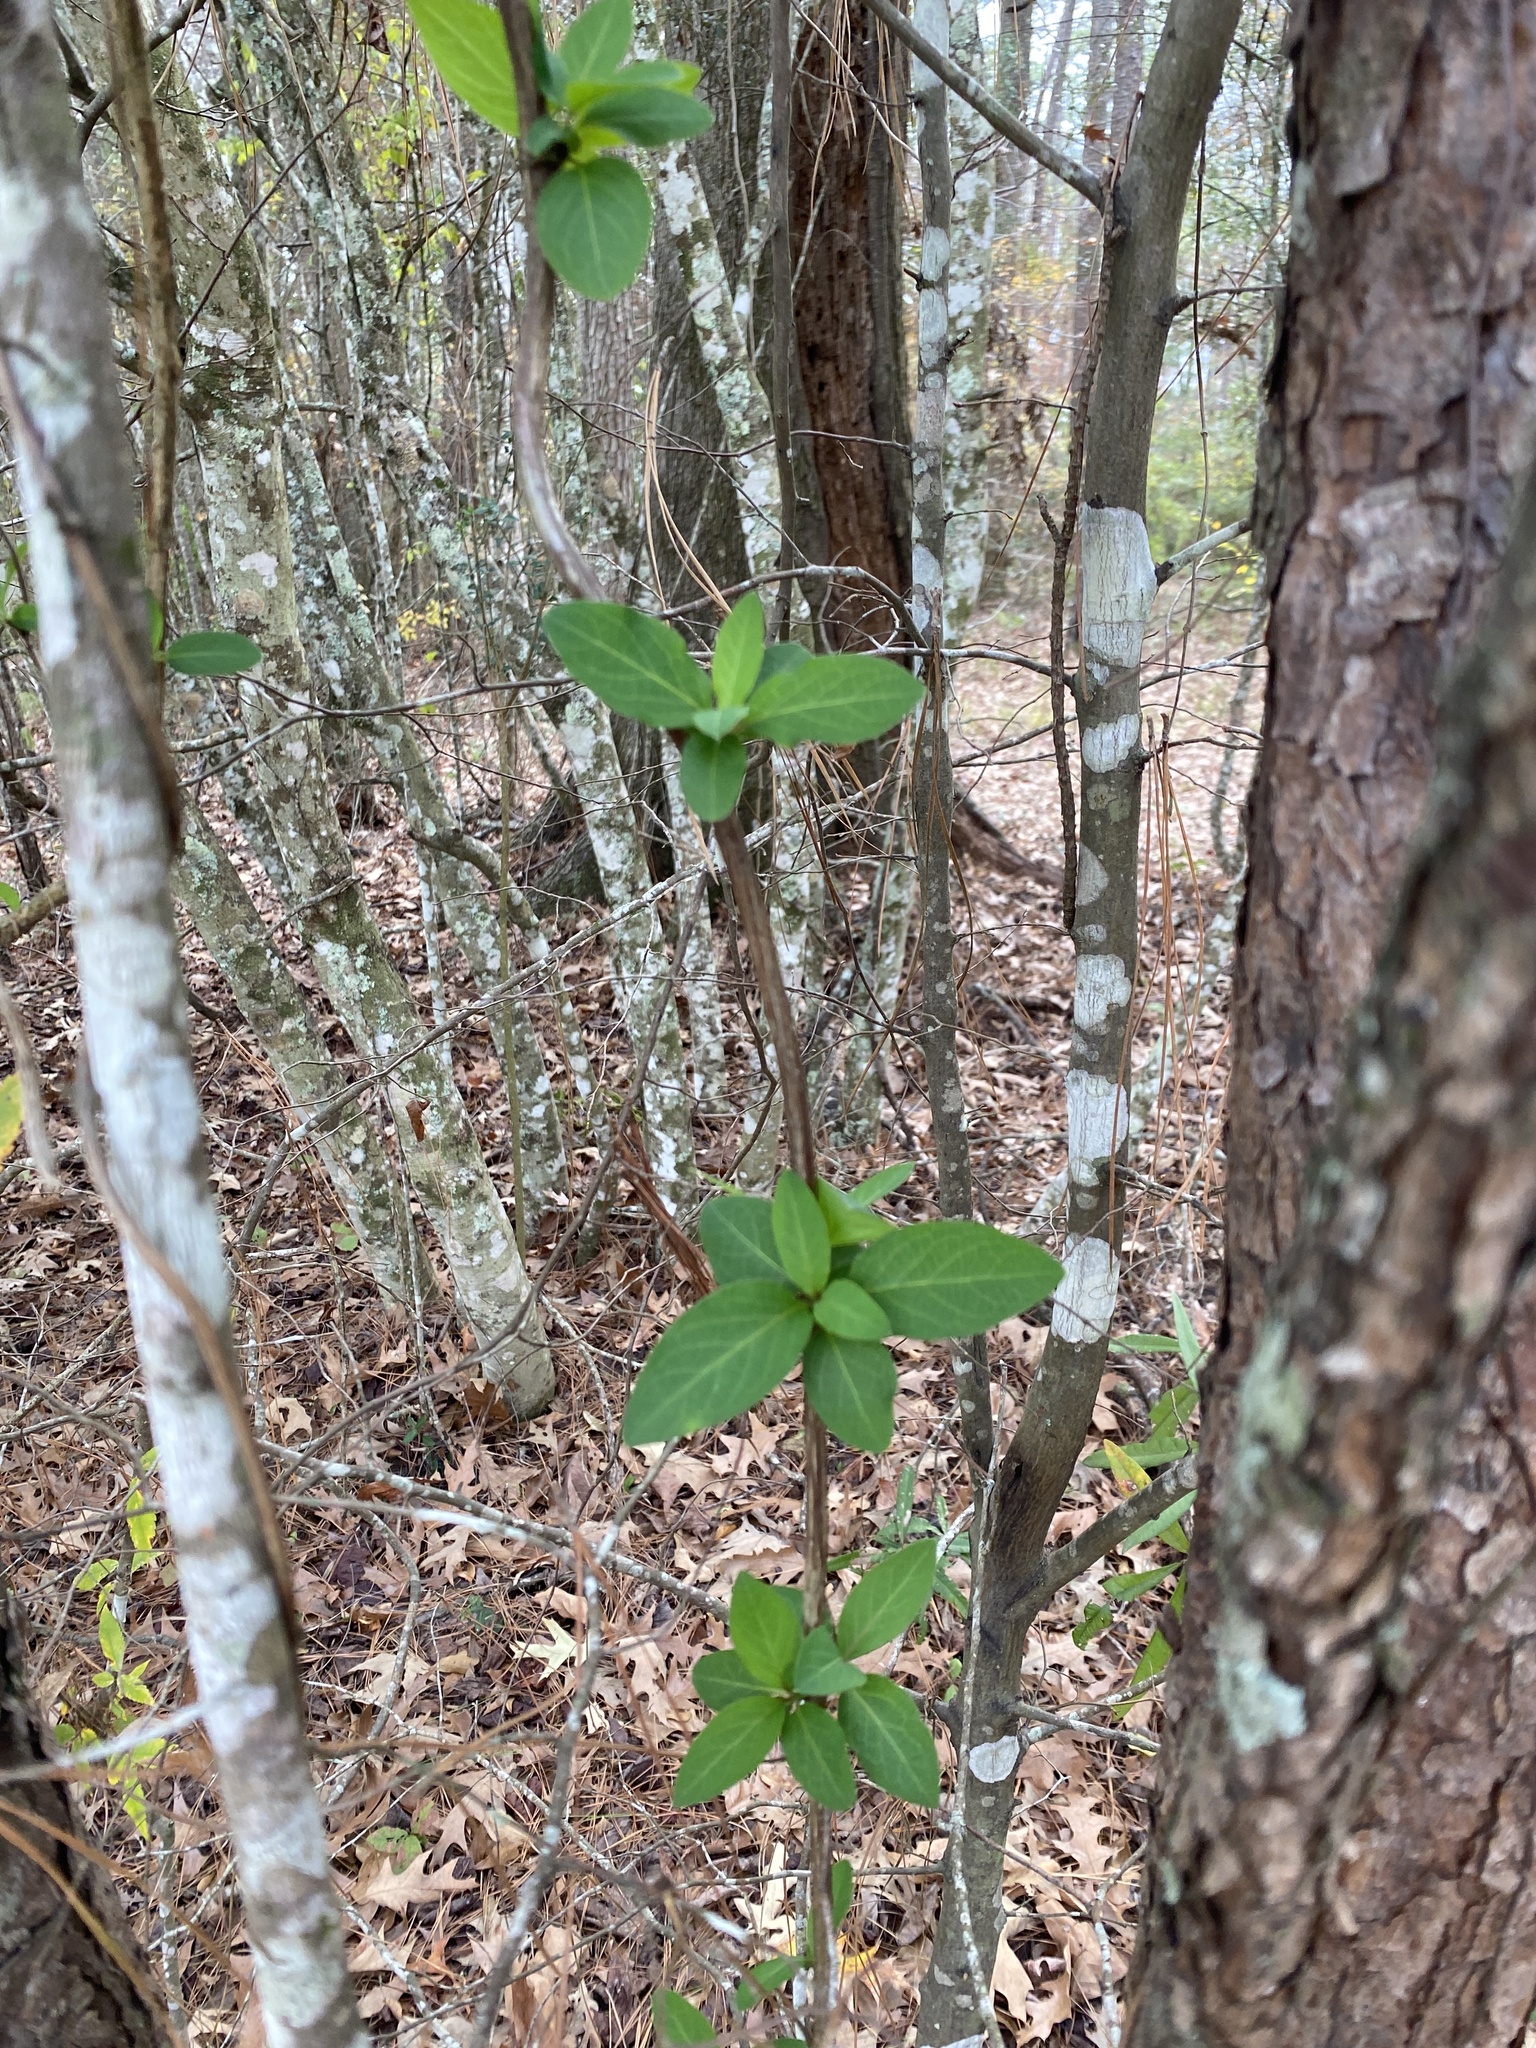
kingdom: Plantae
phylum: Tracheophyta
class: Magnoliopsida
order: Dipsacales
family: Caprifoliaceae
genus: Lonicera
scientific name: Lonicera japonica
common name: Japanese honeysuckle
